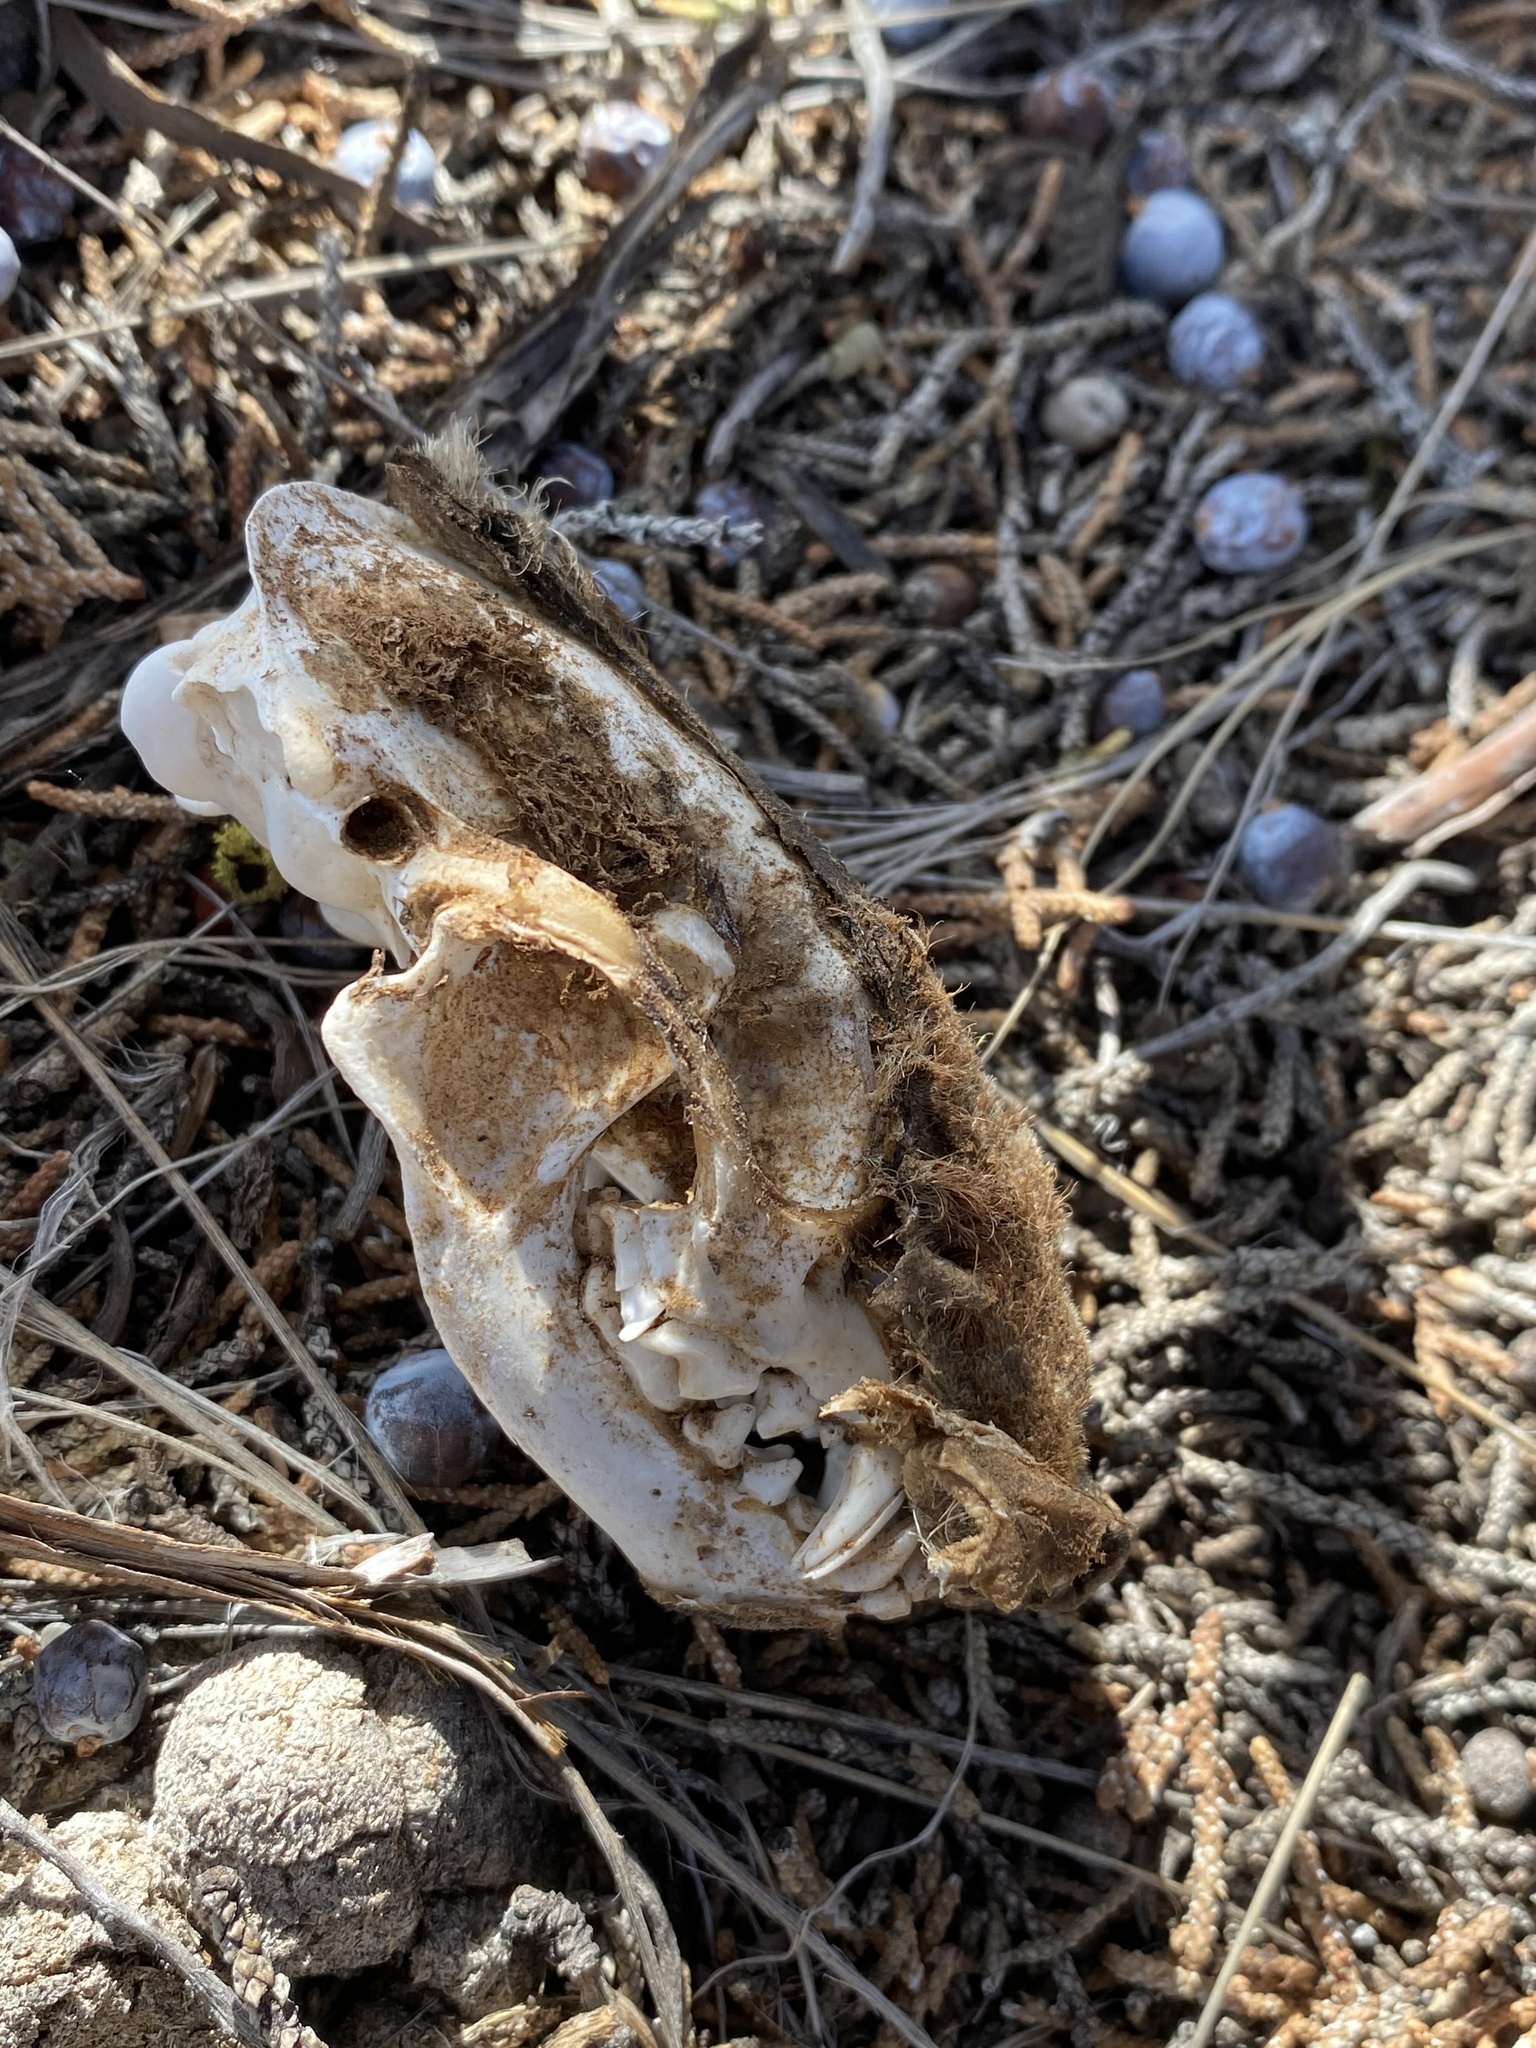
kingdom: Animalia
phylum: Chordata
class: Mammalia
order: Carnivora
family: Mephitidae
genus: Mephitis
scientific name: Mephitis mephitis
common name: Striped skunk
